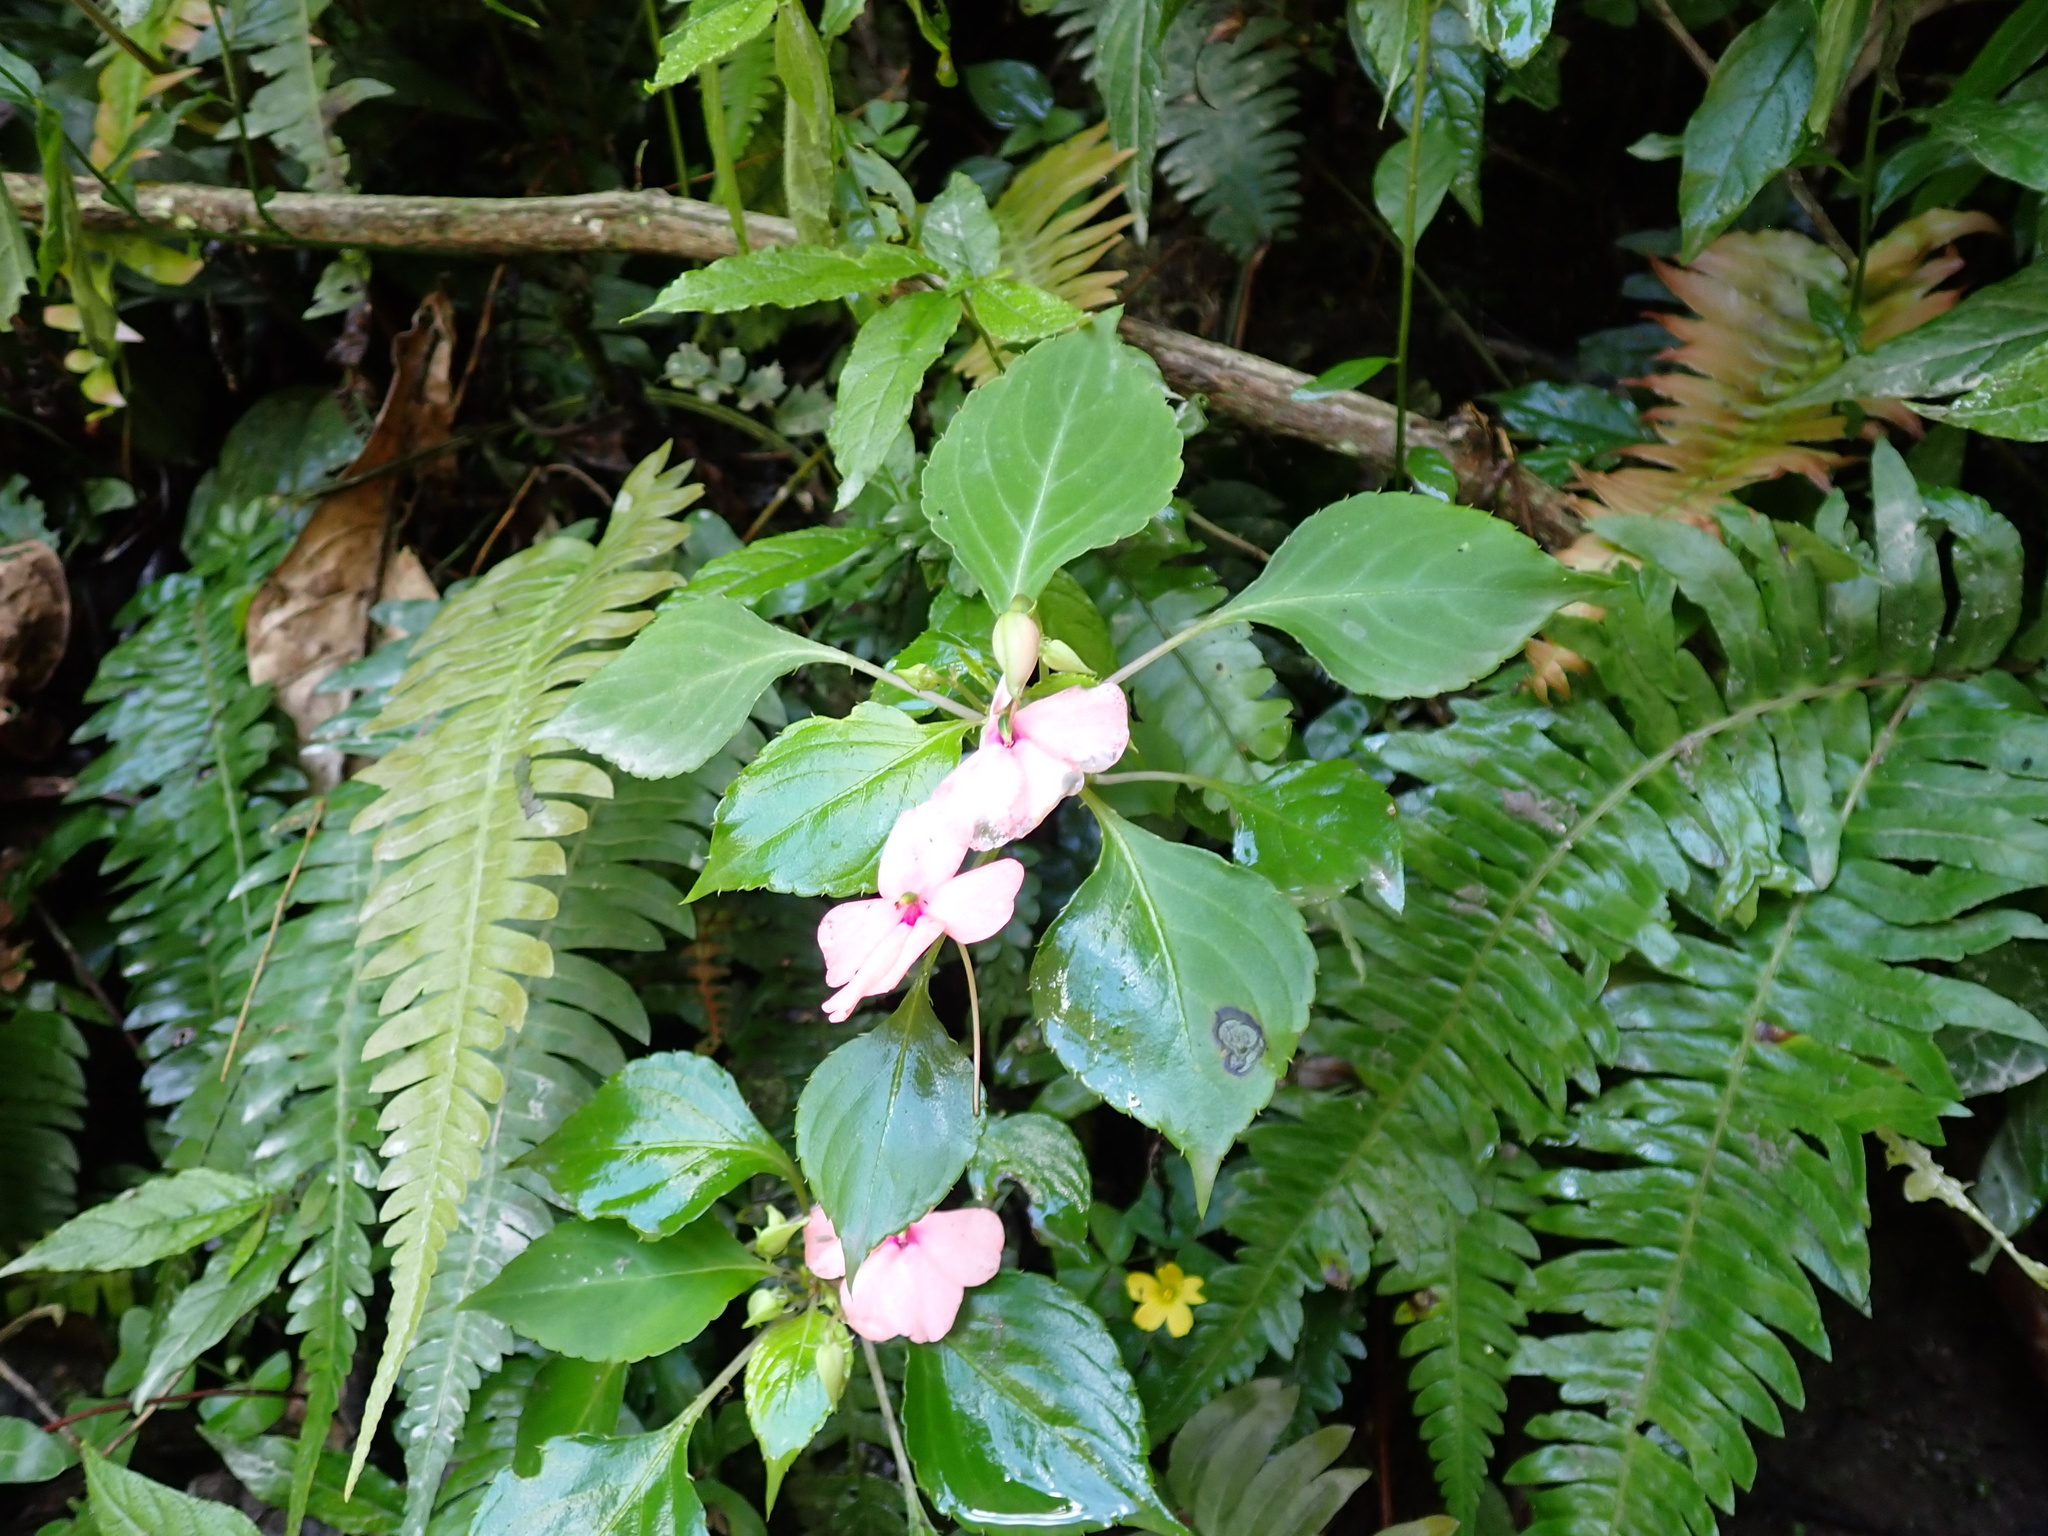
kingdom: Plantae
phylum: Tracheophyta
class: Magnoliopsida
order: Ericales
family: Balsaminaceae
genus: Impatiens
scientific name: Impatiens walleriana
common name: Buzzy lizzy
